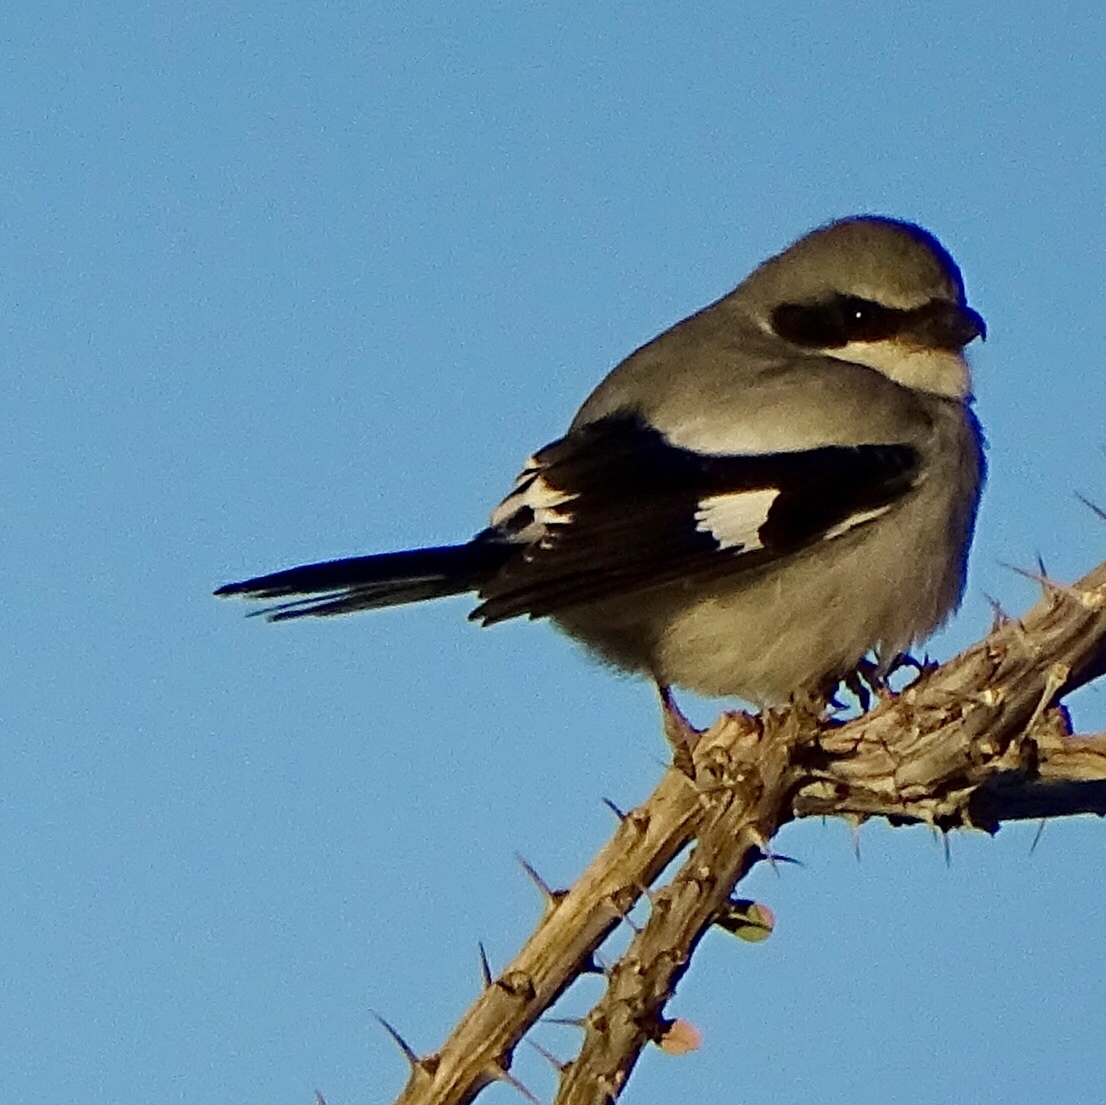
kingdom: Animalia
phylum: Chordata
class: Aves
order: Passeriformes
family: Laniidae
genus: Lanius
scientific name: Lanius ludovicianus
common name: Loggerhead shrike
